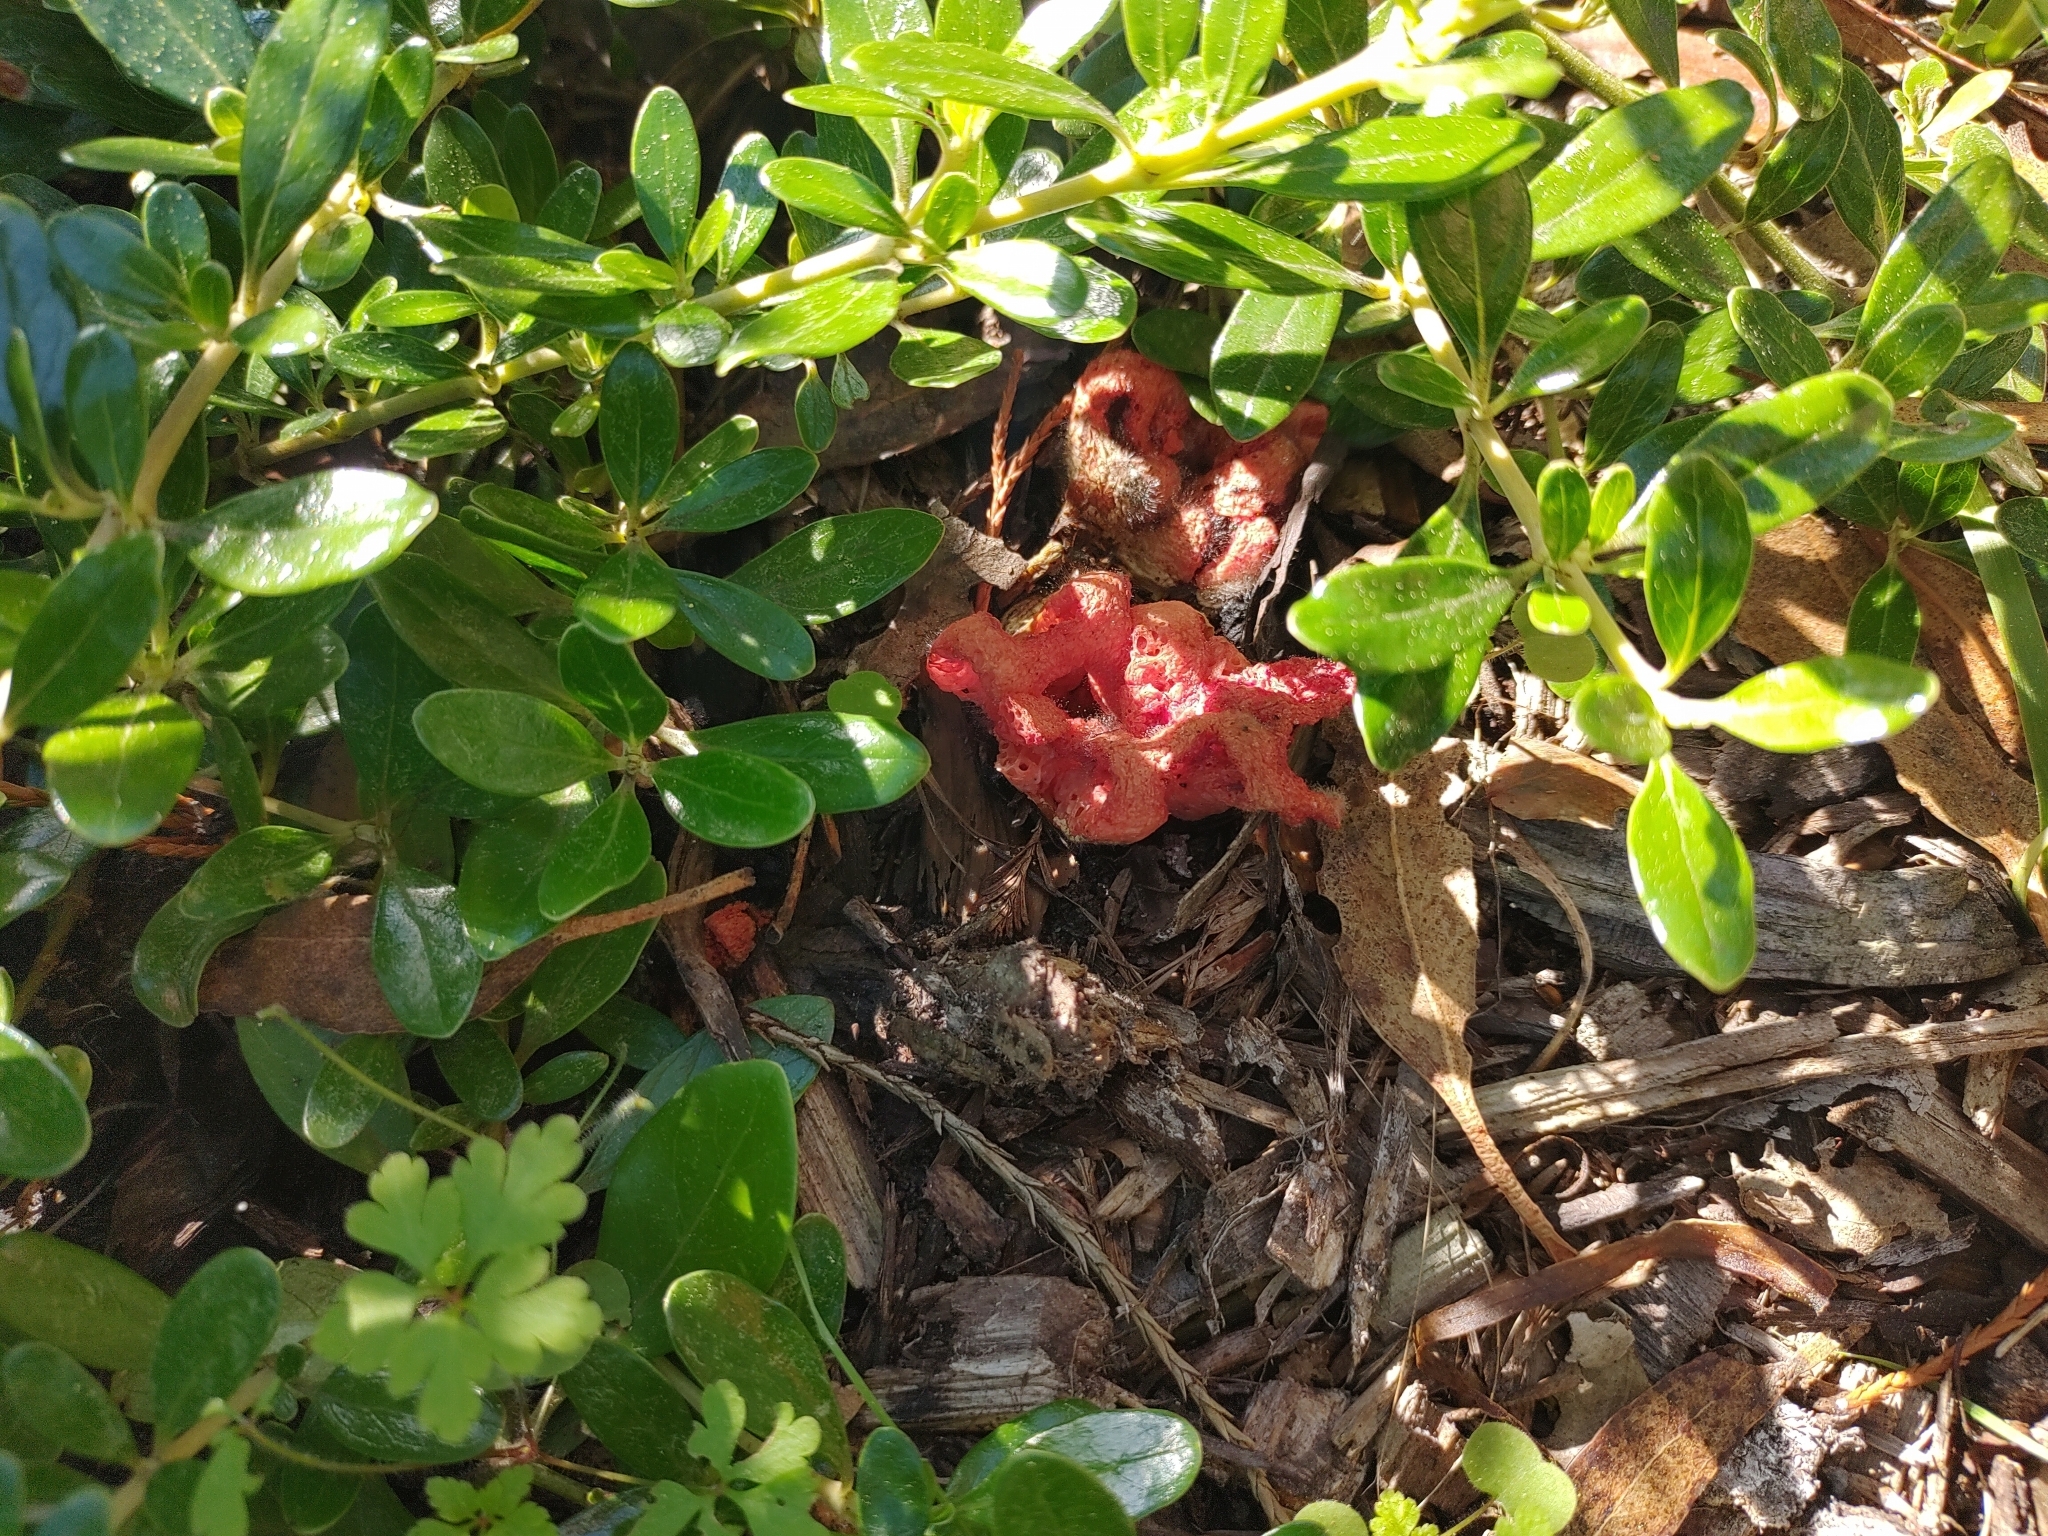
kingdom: Fungi
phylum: Basidiomycota
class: Agaricomycetes
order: Phallales
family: Phallaceae
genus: Clathrus
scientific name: Clathrus ruber
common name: Red cage
